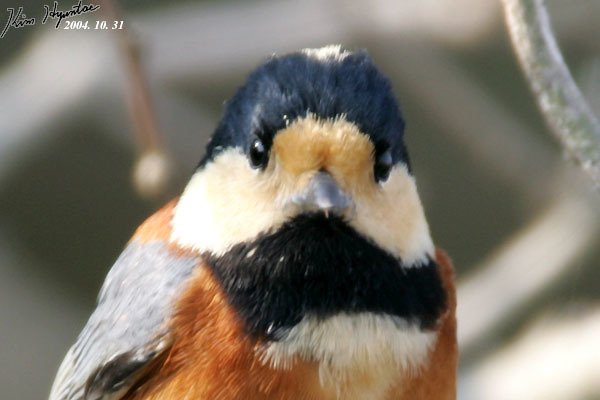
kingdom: Animalia
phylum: Chordata
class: Aves
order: Passeriformes
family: Paridae
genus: Poecile
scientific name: Poecile varius
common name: Varied tit
